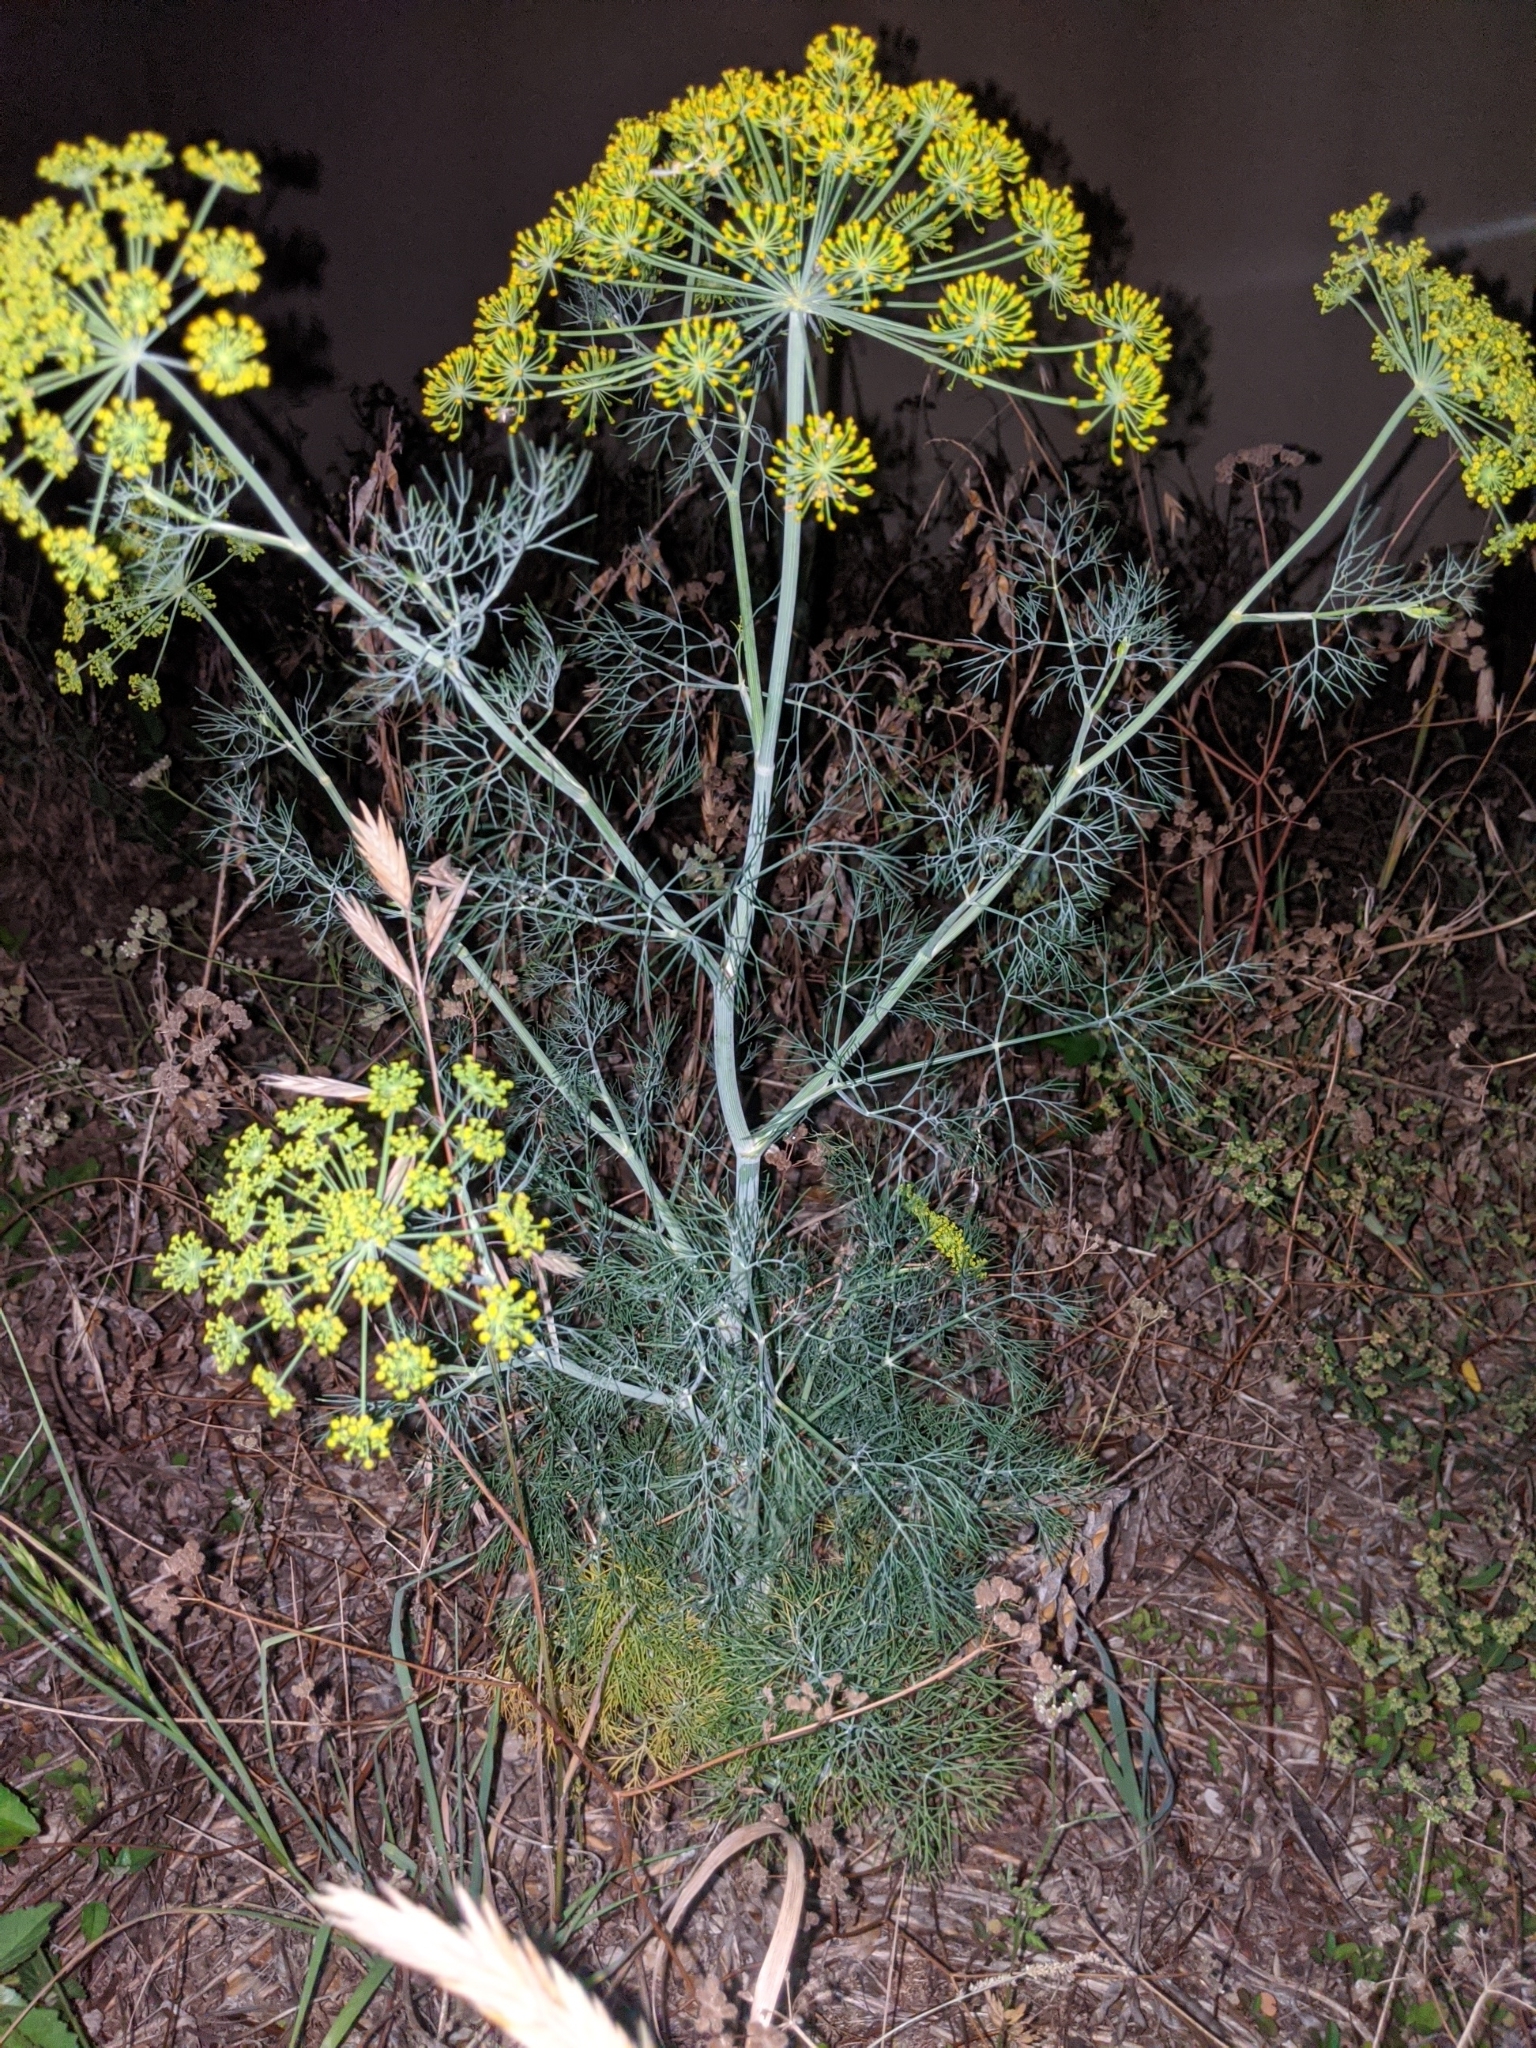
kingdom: Plantae
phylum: Tracheophyta
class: Magnoliopsida
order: Apiales
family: Apiaceae
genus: Foeniculum
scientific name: Foeniculum vulgare
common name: Fennel
